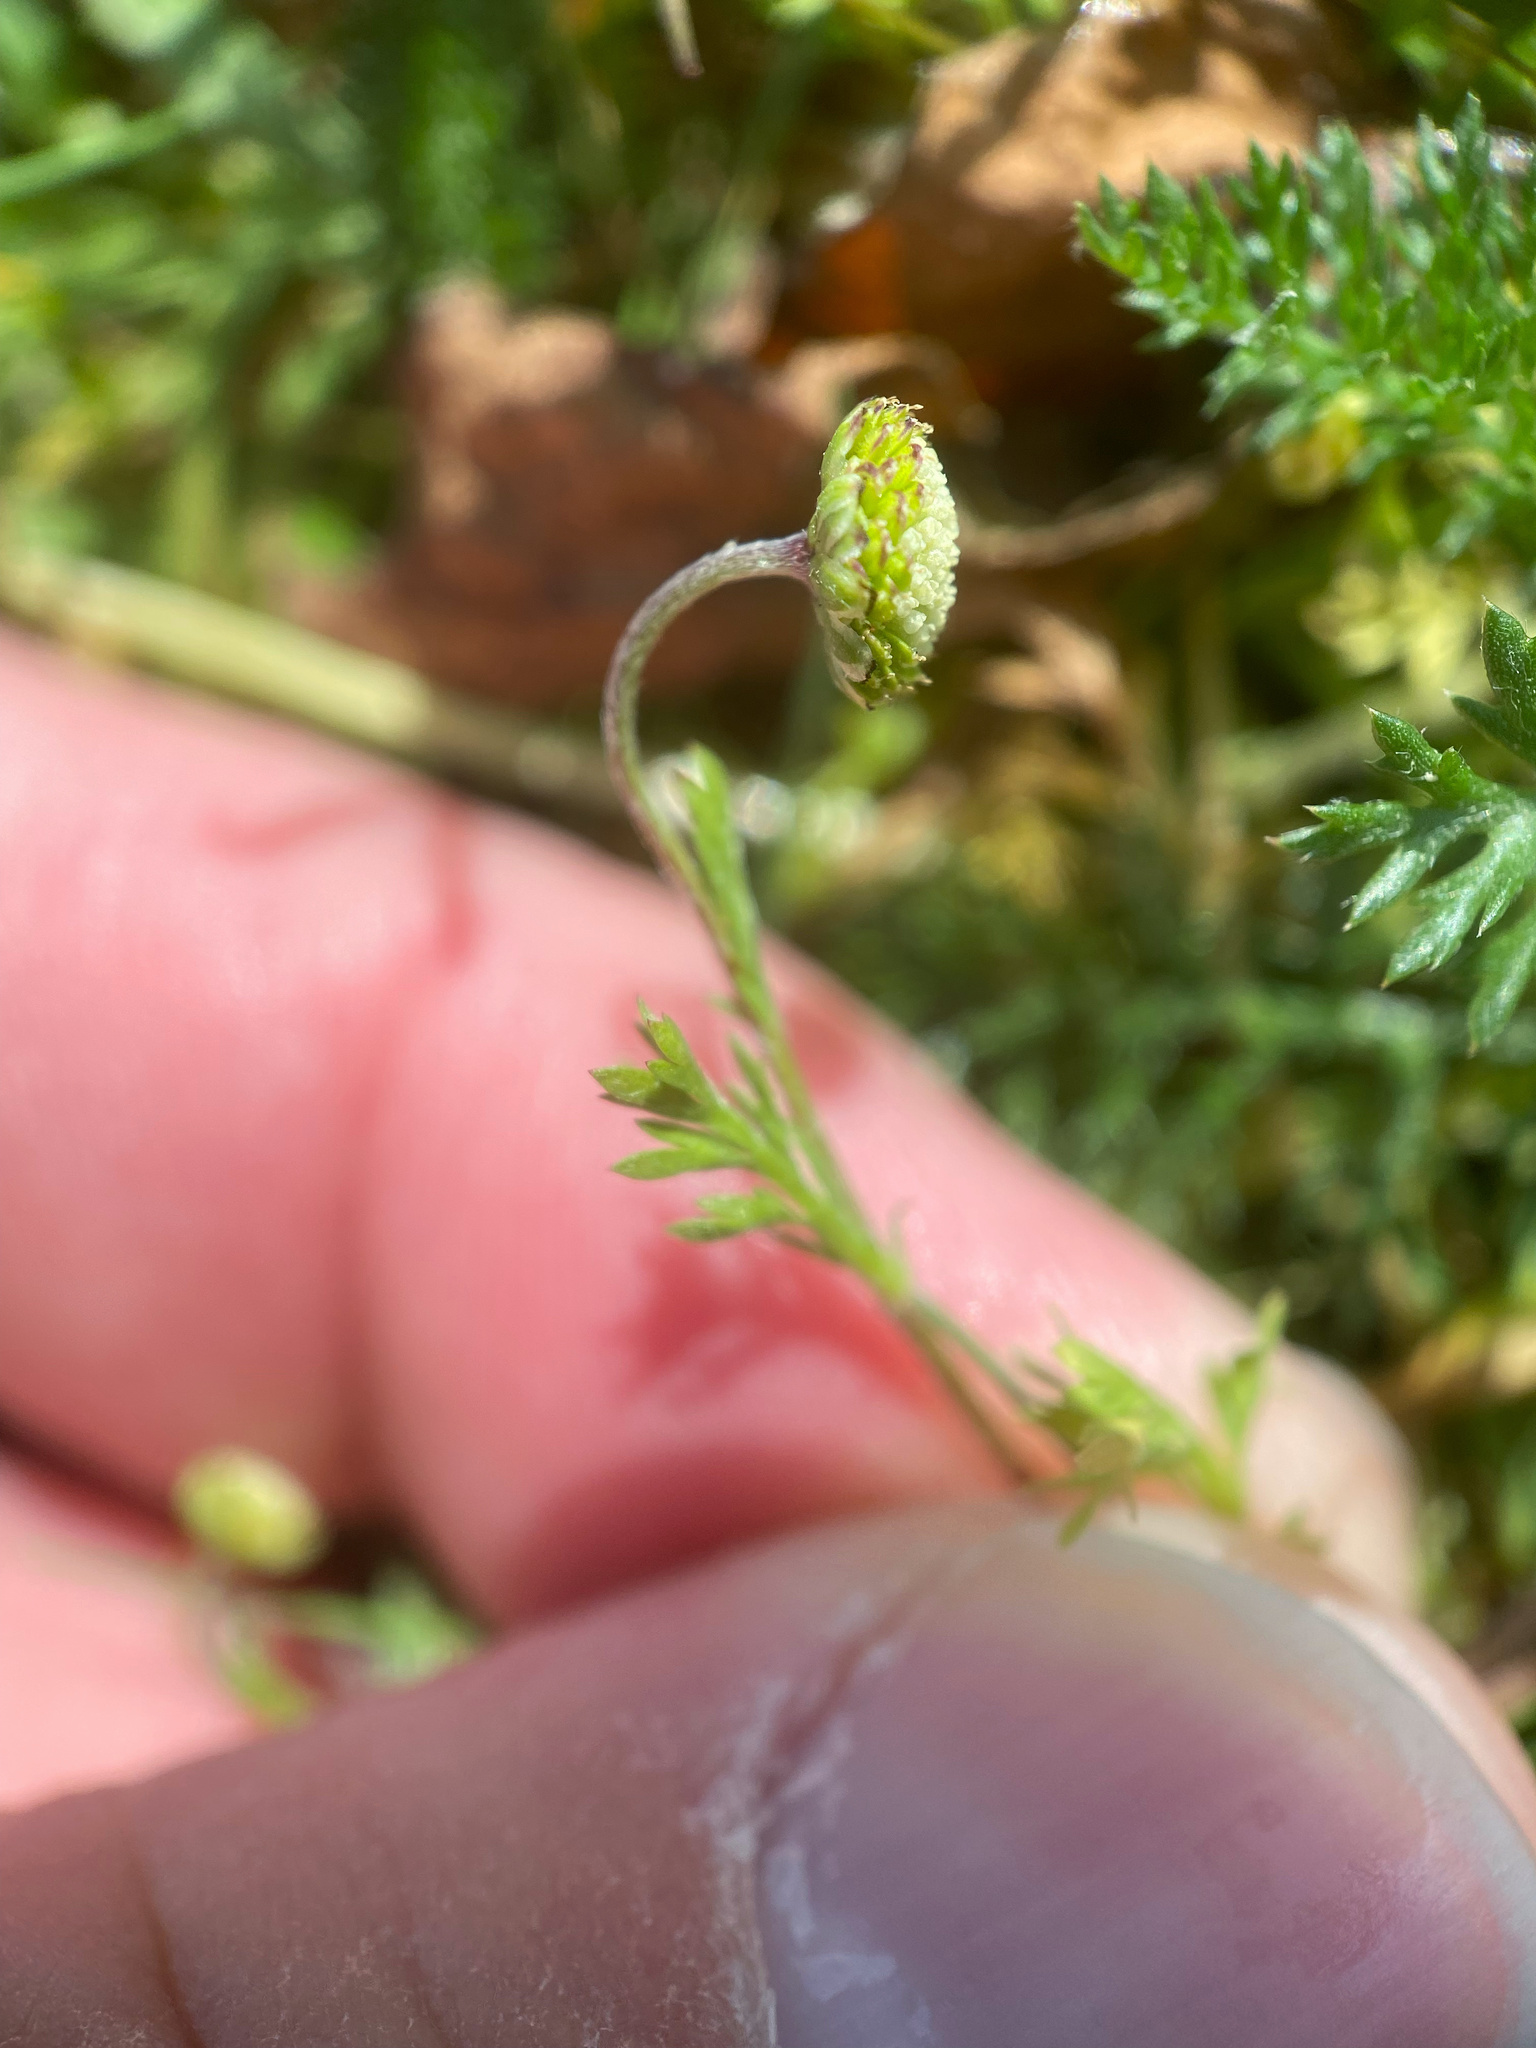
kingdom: Plantae
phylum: Tracheophyta
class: Magnoliopsida
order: Asterales
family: Asteraceae
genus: Cotula
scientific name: Cotula australis
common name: Australian waterbuttons
